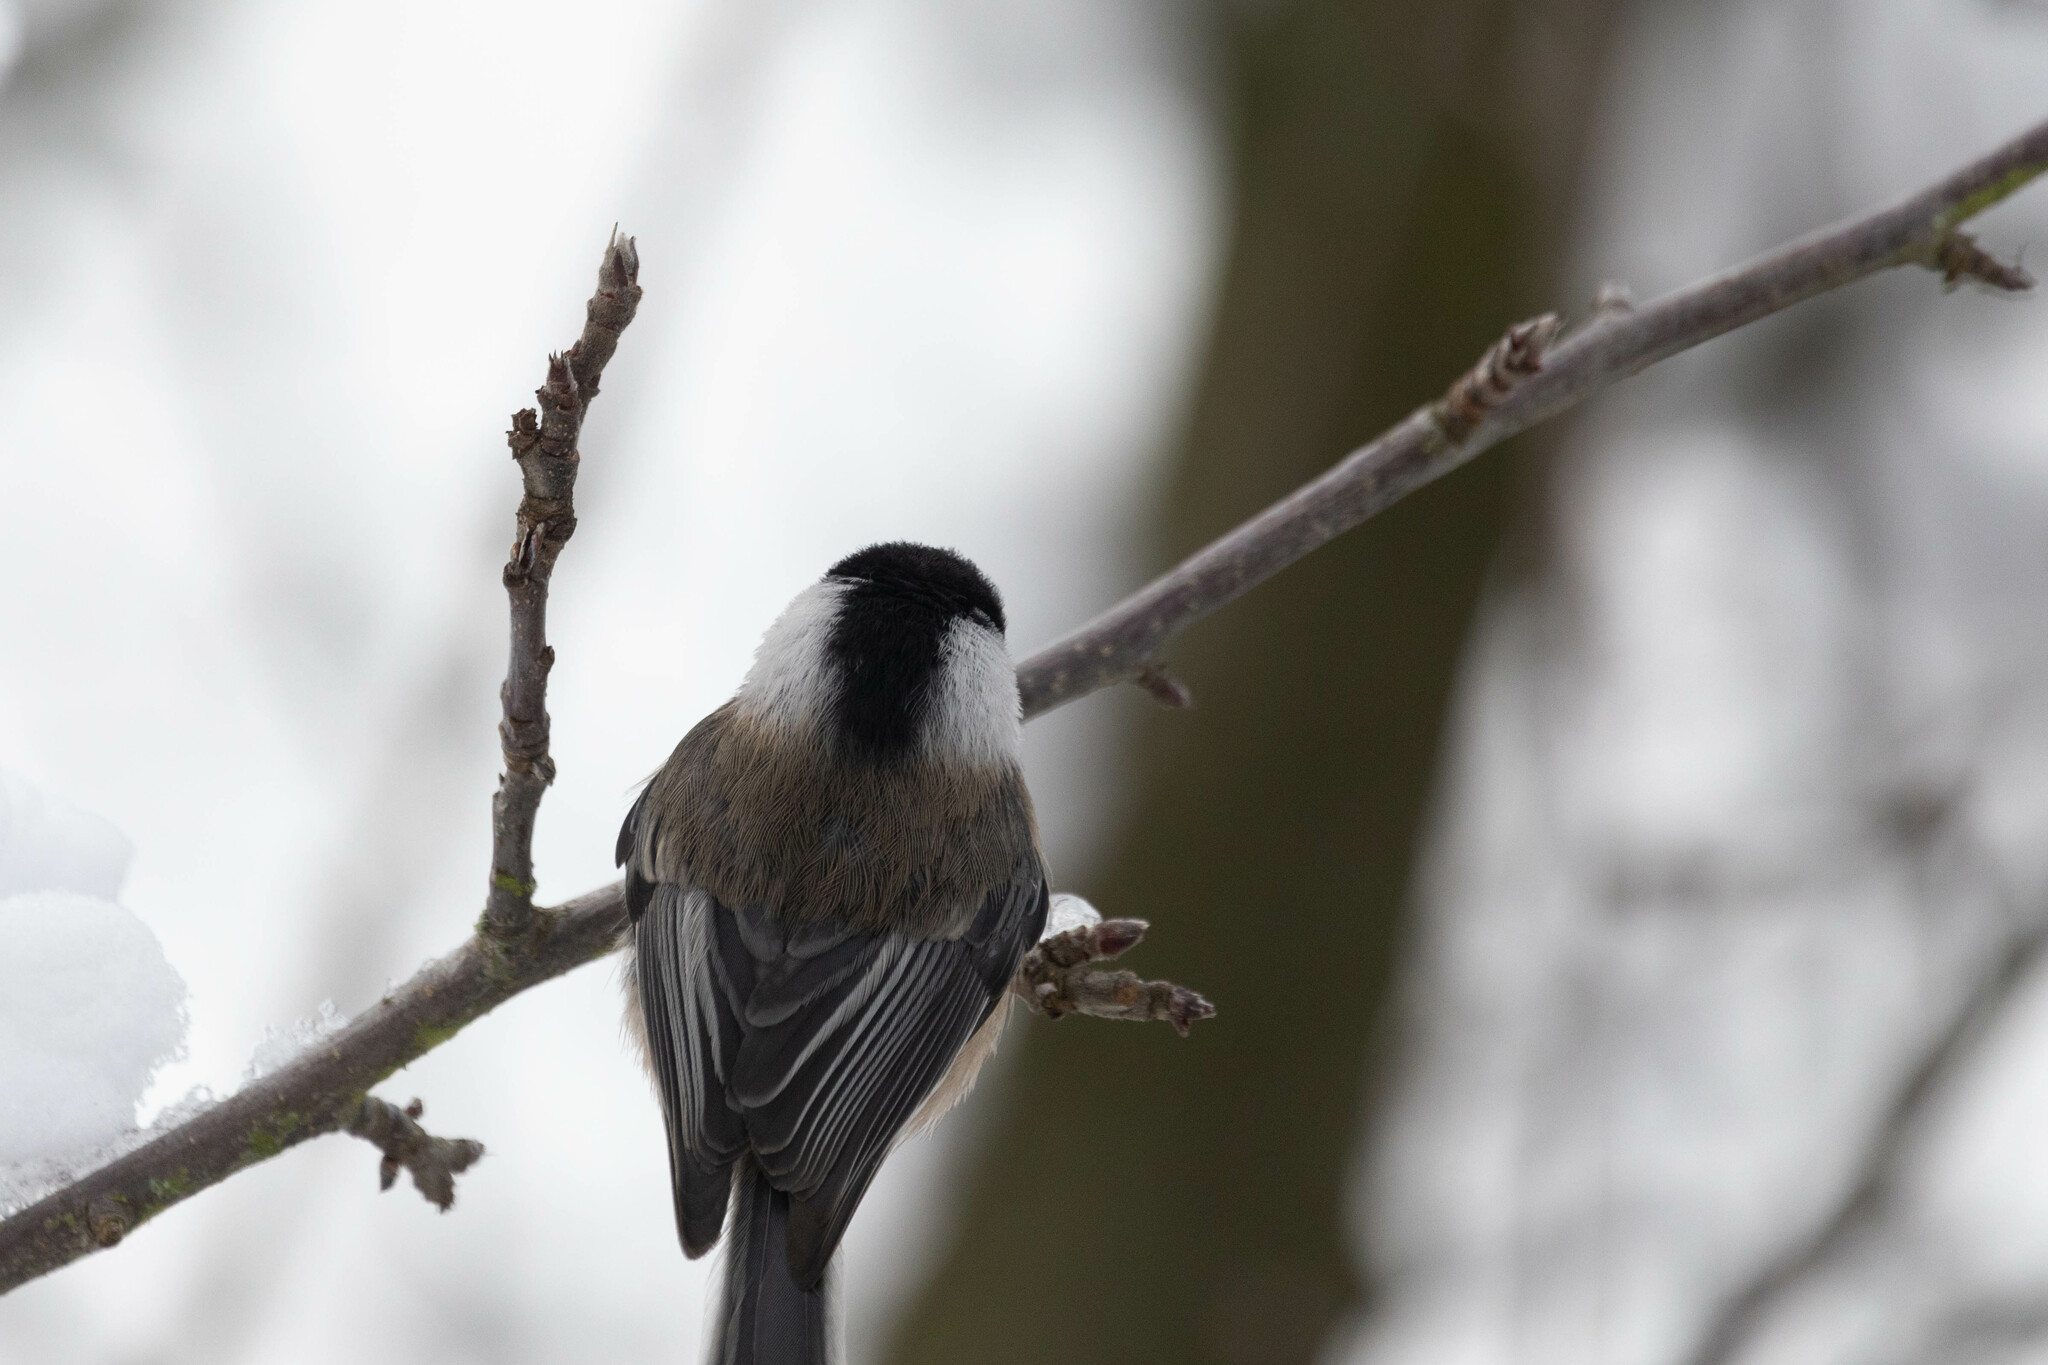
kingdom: Animalia
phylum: Chordata
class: Aves
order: Passeriformes
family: Paridae
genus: Poecile
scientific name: Poecile atricapillus
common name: Black-capped chickadee
